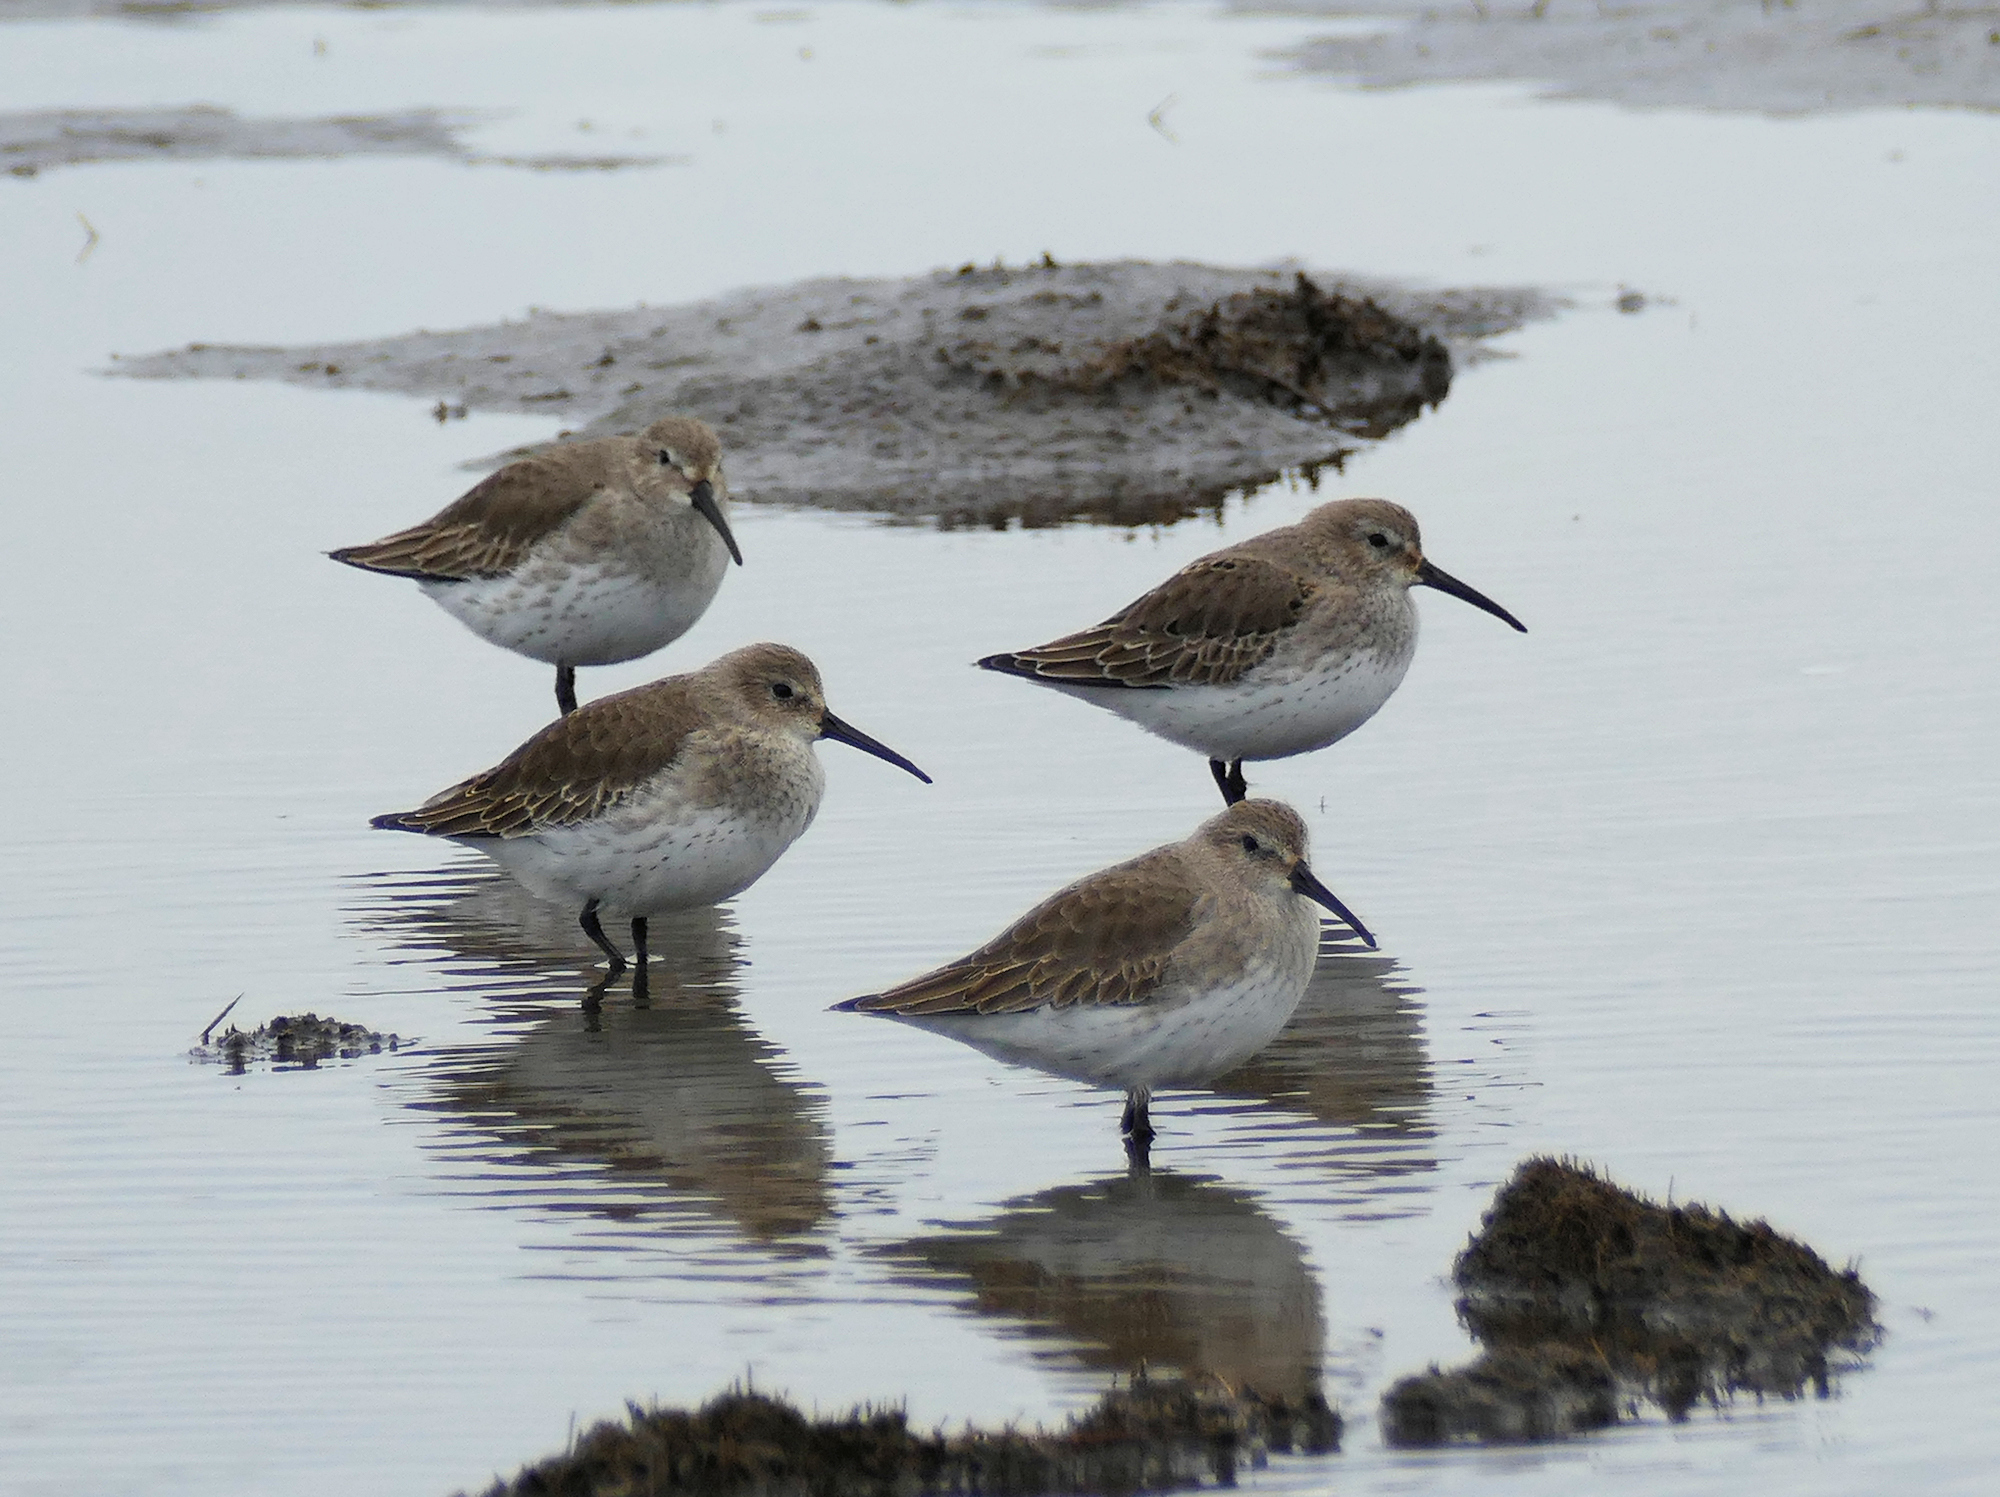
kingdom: Animalia
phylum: Chordata
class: Aves
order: Charadriiformes
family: Scolopacidae
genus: Calidris
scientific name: Calidris alpina
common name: Dunlin
